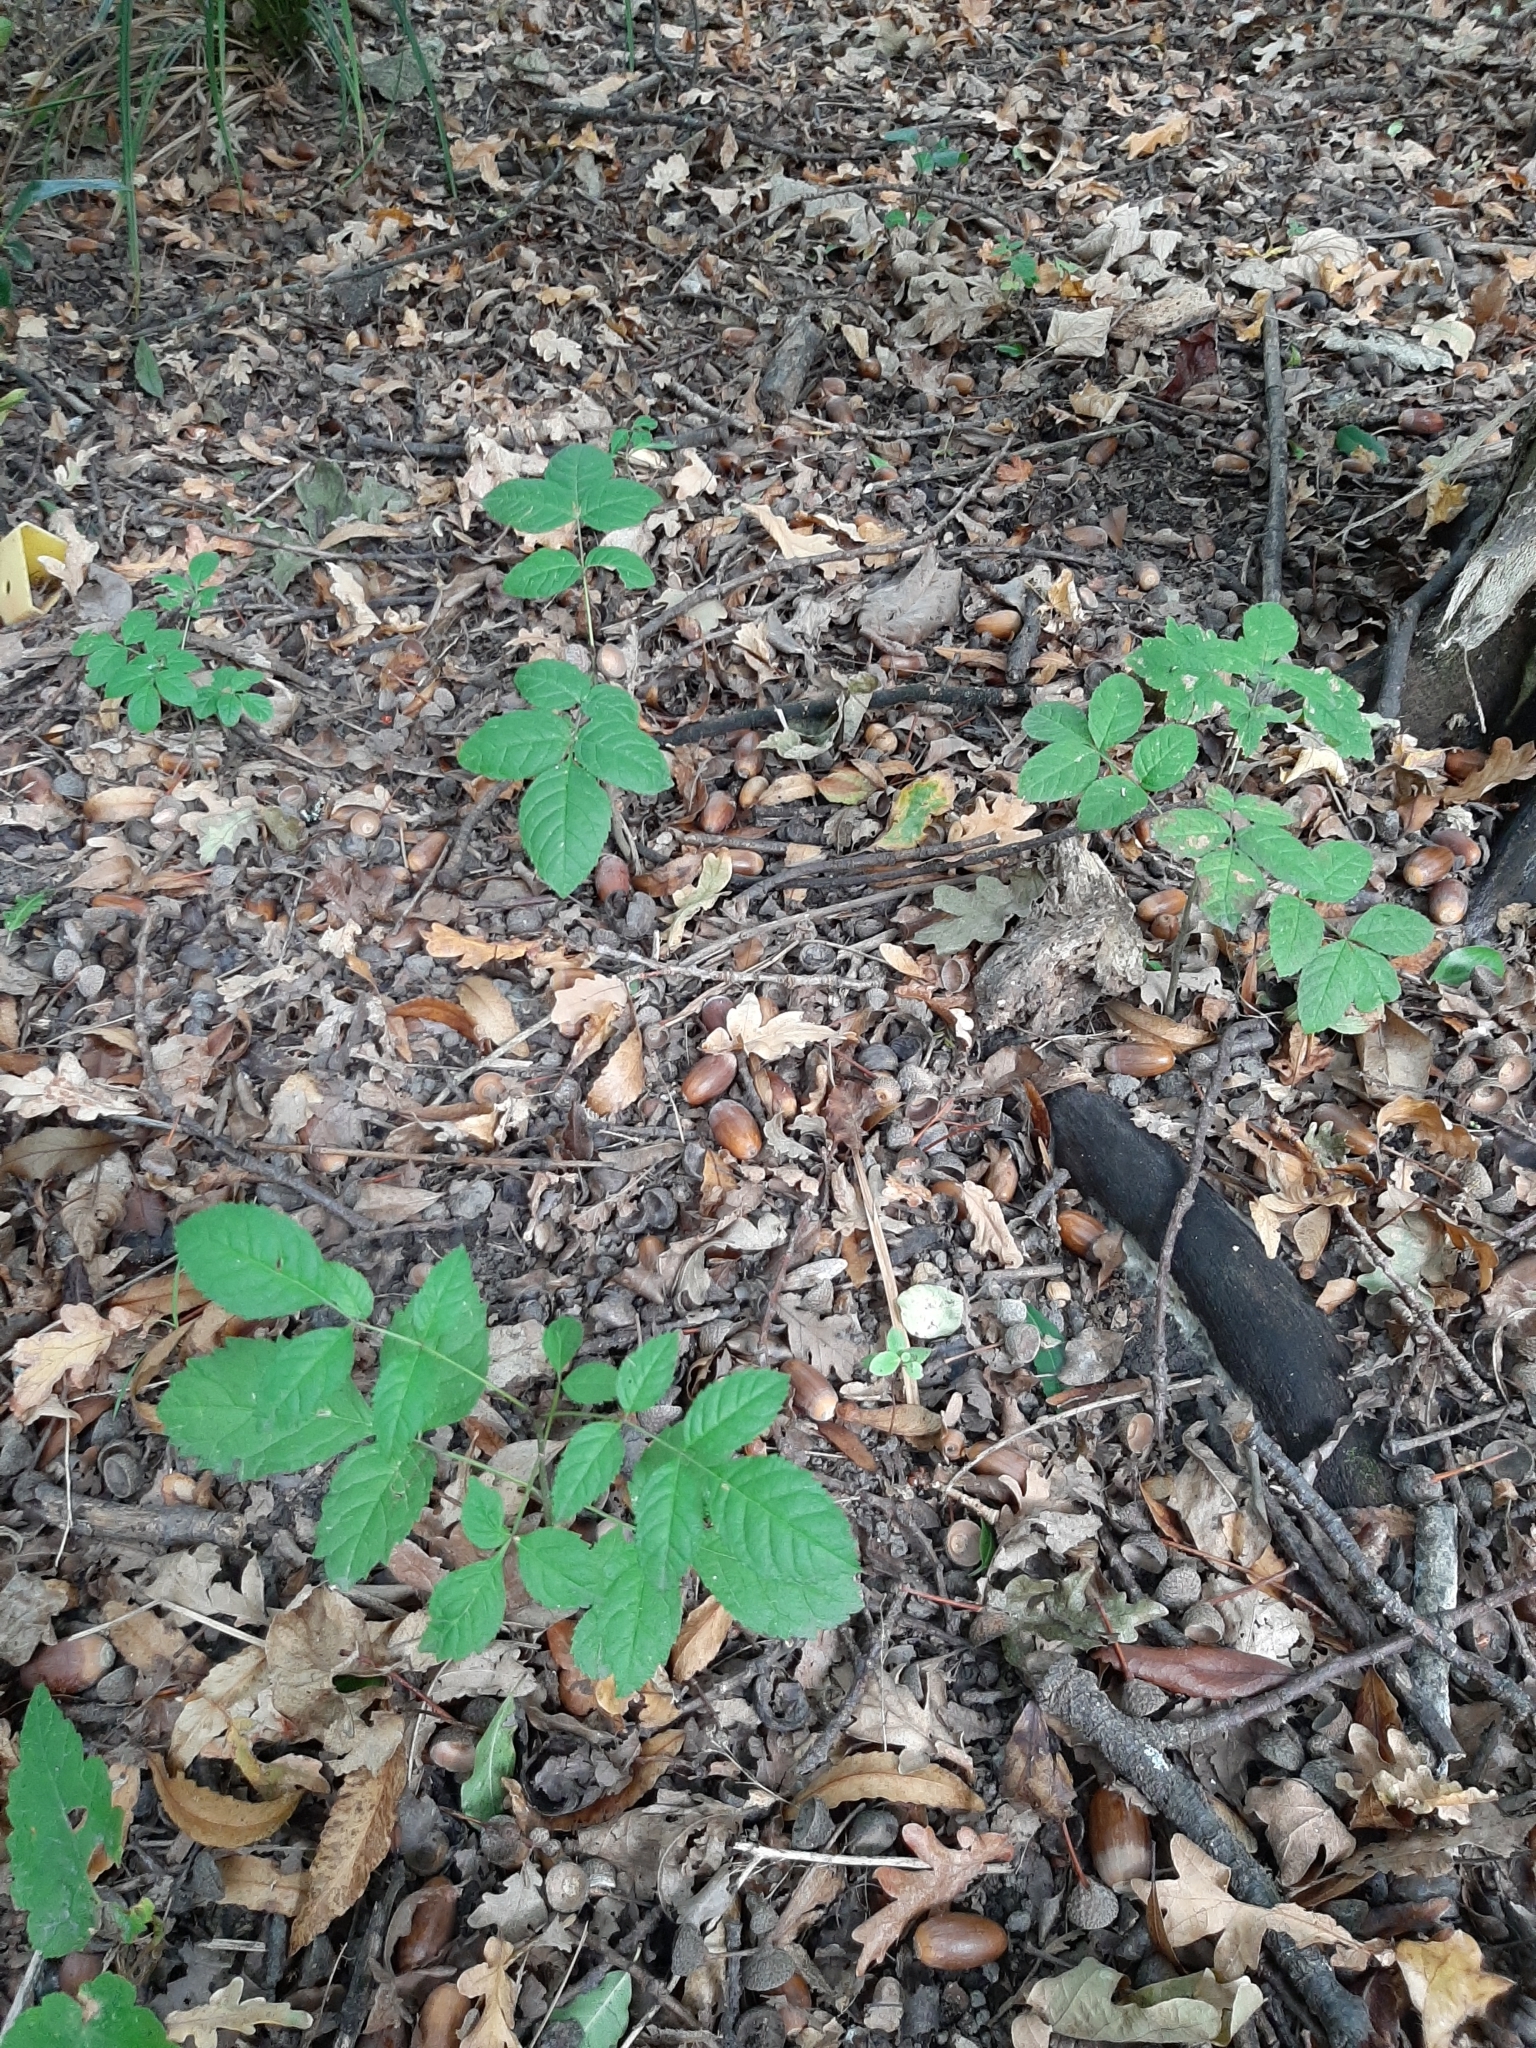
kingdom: Plantae
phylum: Tracheophyta
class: Magnoliopsida
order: Lamiales
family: Oleaceae
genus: Fraxinus
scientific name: Fraxinus excelsior
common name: European ash
